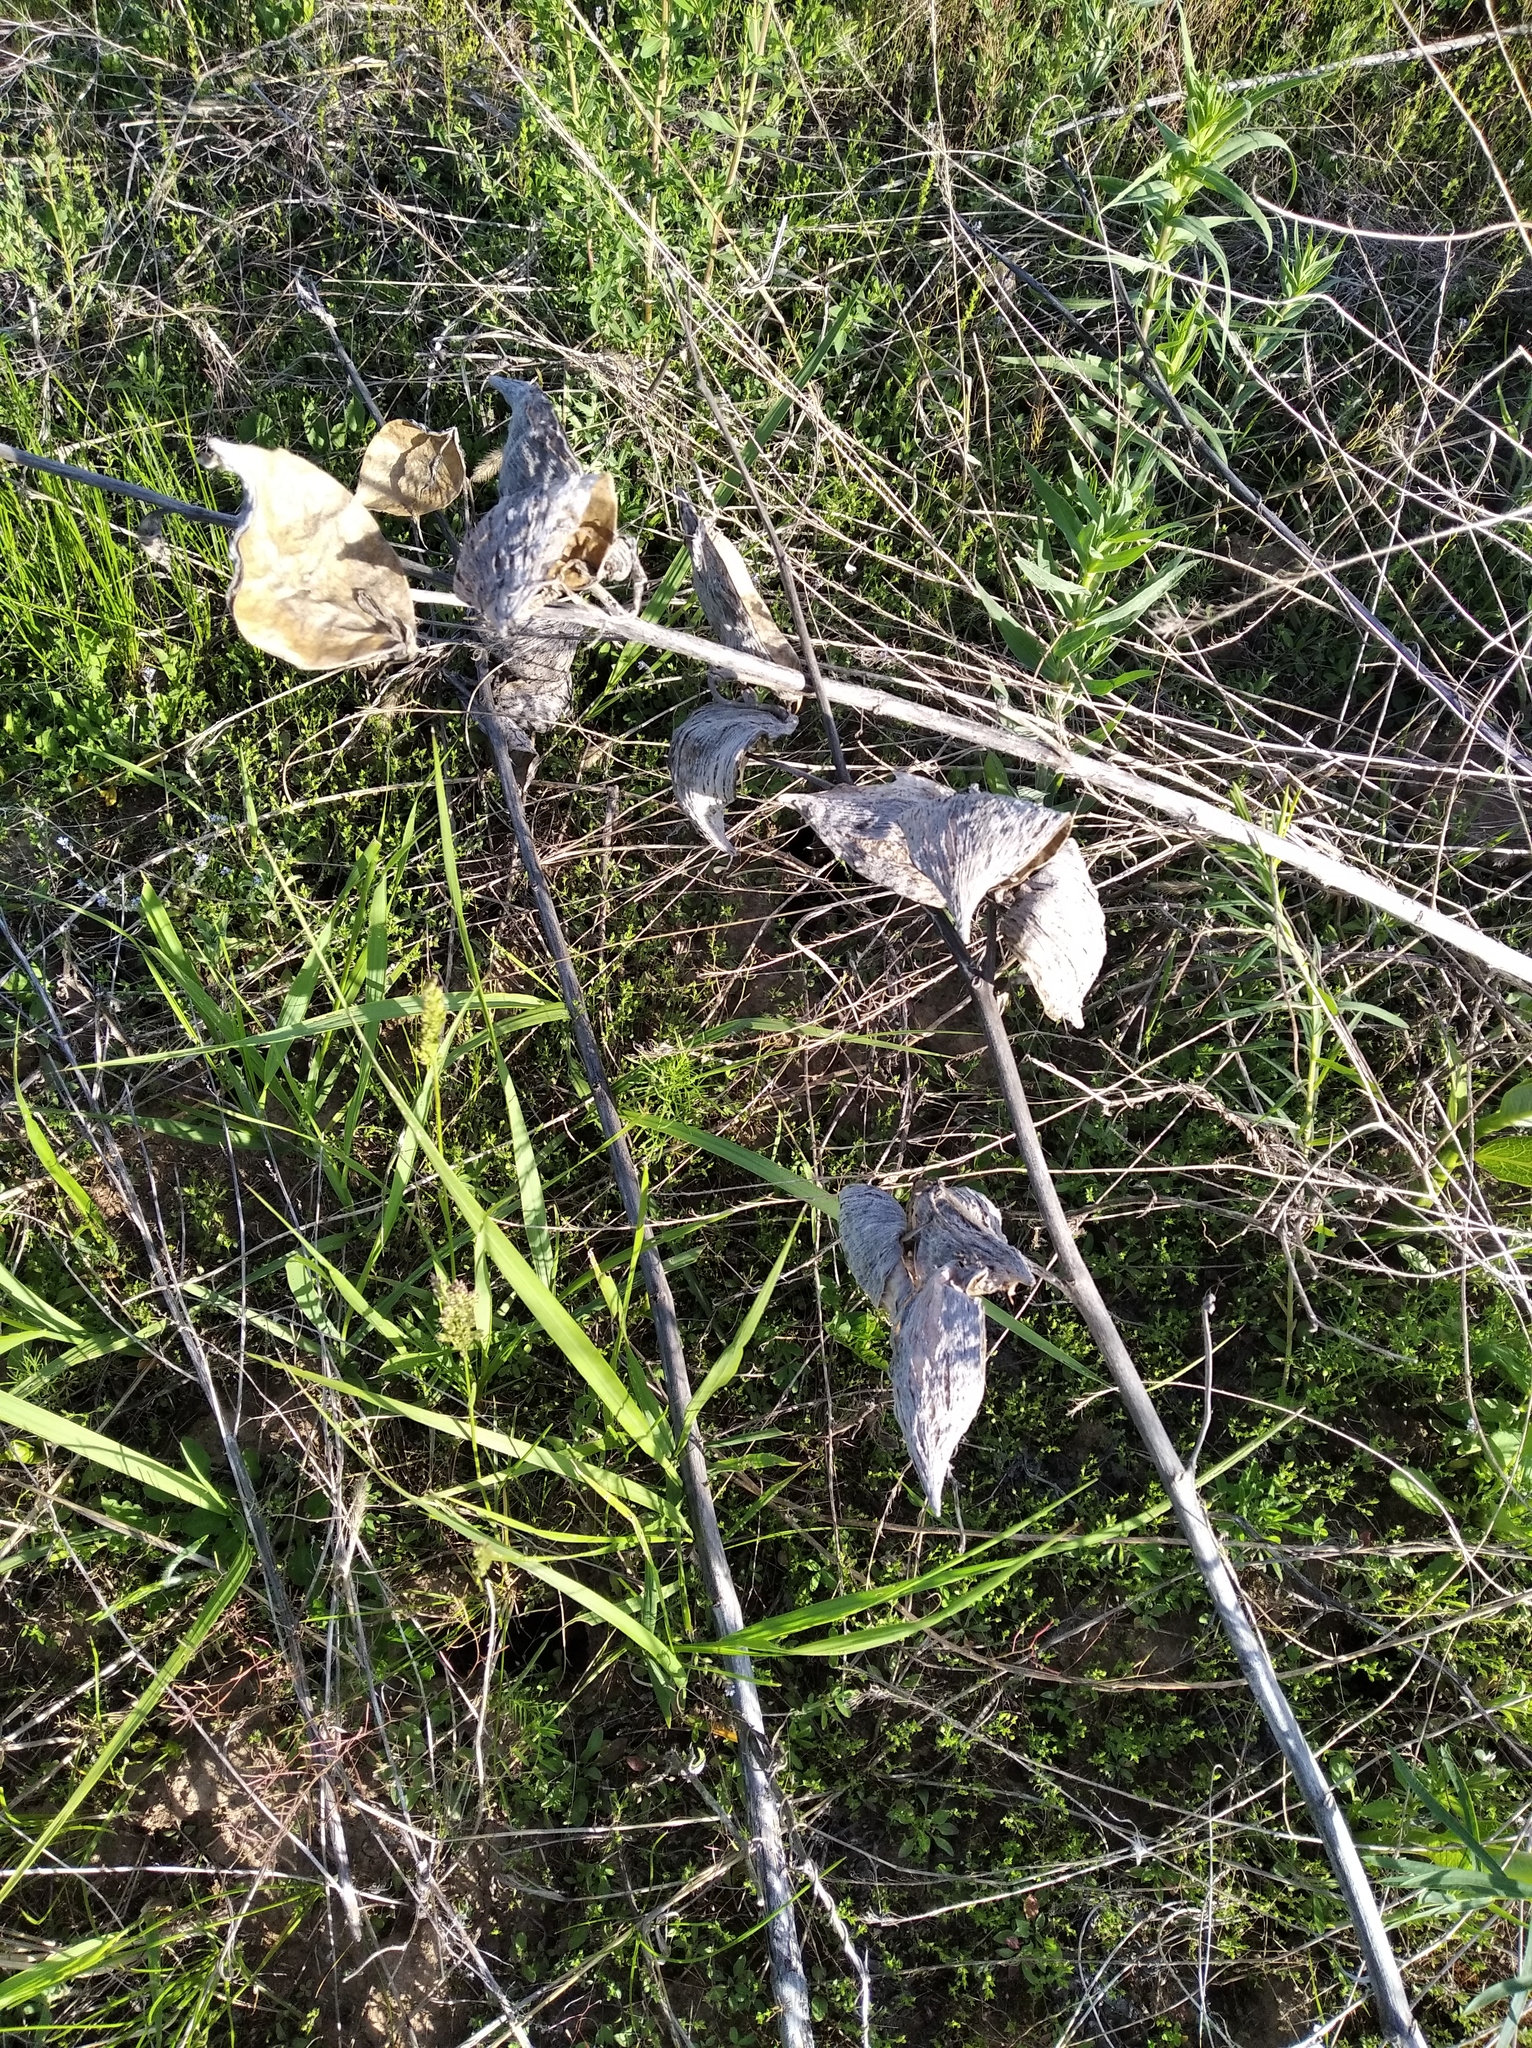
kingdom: Plantae
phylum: Tracheophyta
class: Magnoliopsida
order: Gentianales
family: Apocynaceae
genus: Asclepias
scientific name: Asclepias syriaca
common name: Common milkweed
